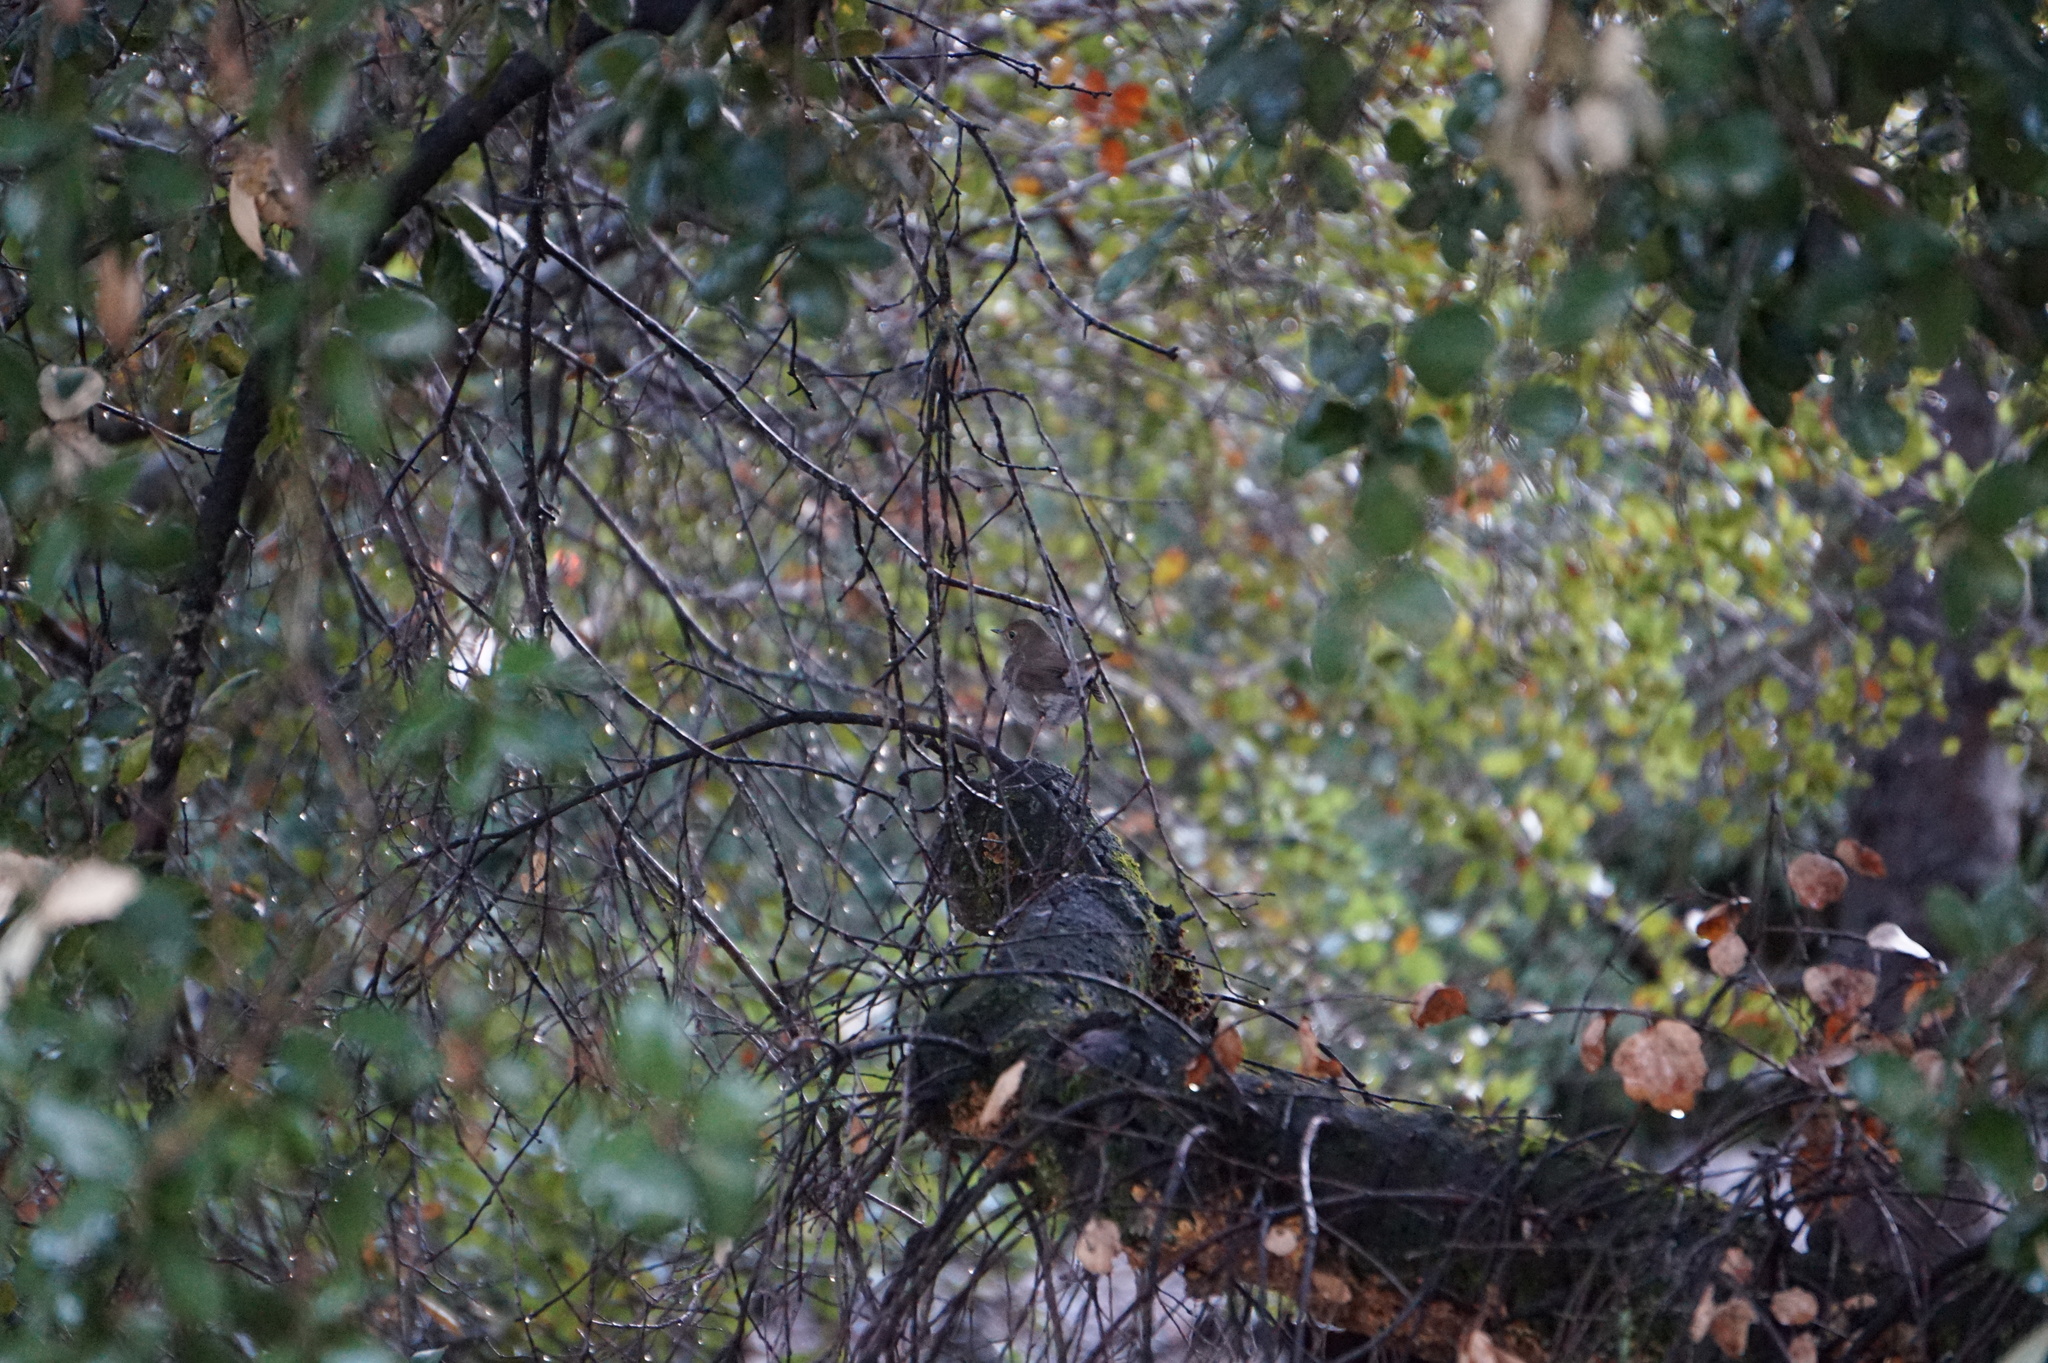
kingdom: Animalia
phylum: Chordata
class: Aves
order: Passeriformes
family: Turdidae
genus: Catharus
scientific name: Catharus guttatus
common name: Hermit thrush
